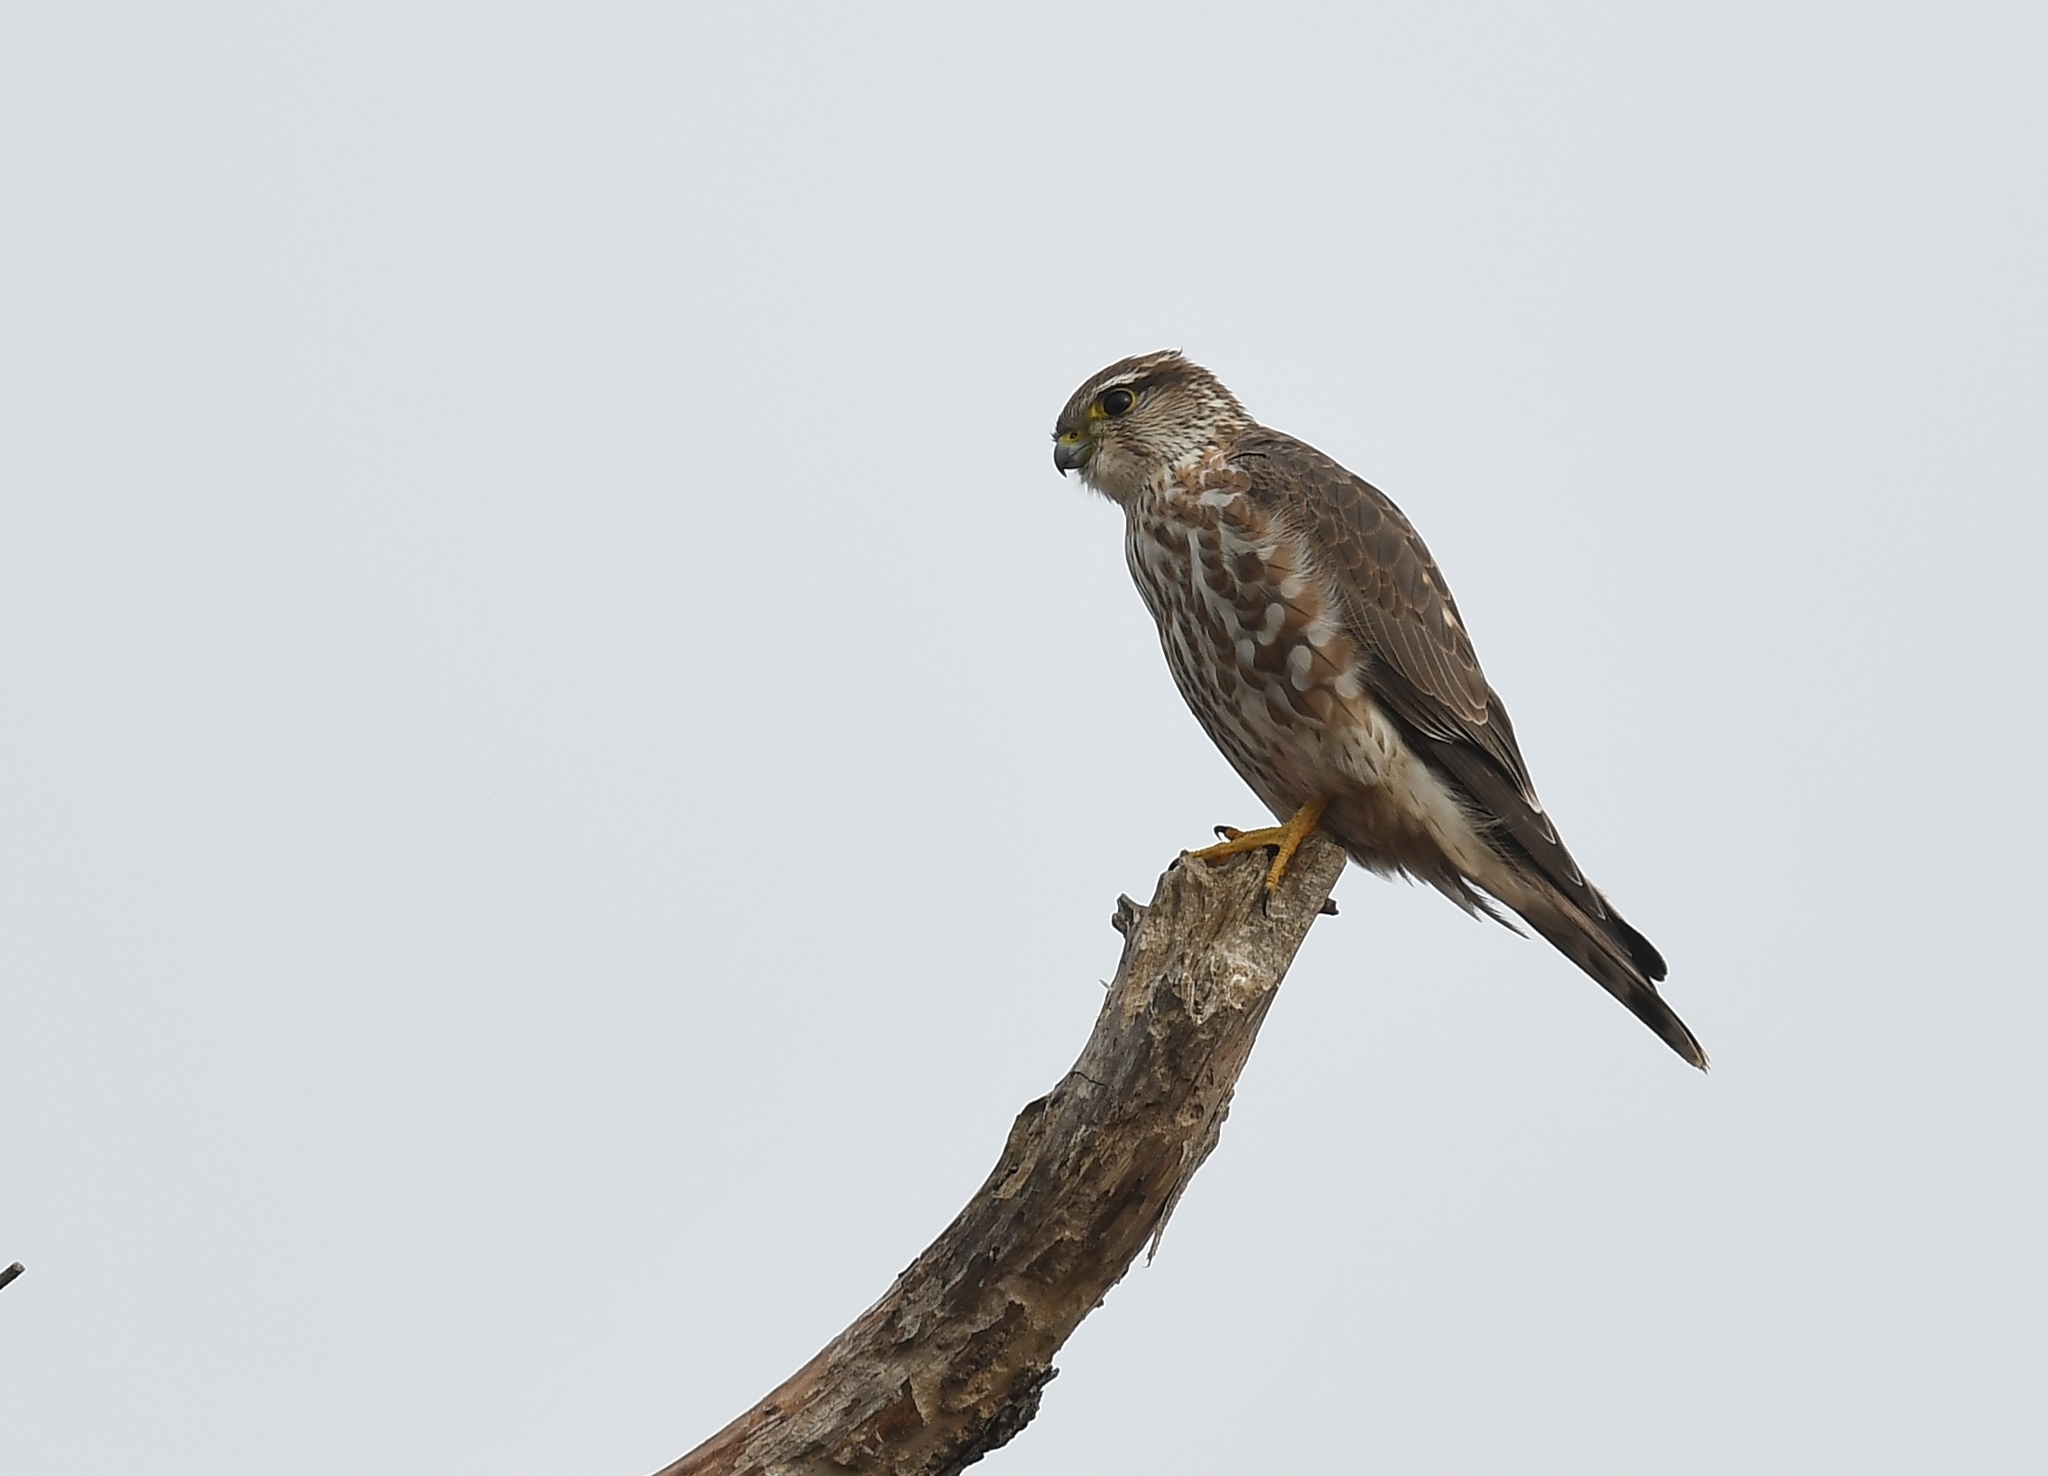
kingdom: Animalia
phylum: Chordata
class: Aves
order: Falconiformes
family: Falconidae
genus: Falco
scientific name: Falco columbarius
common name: Merlin
